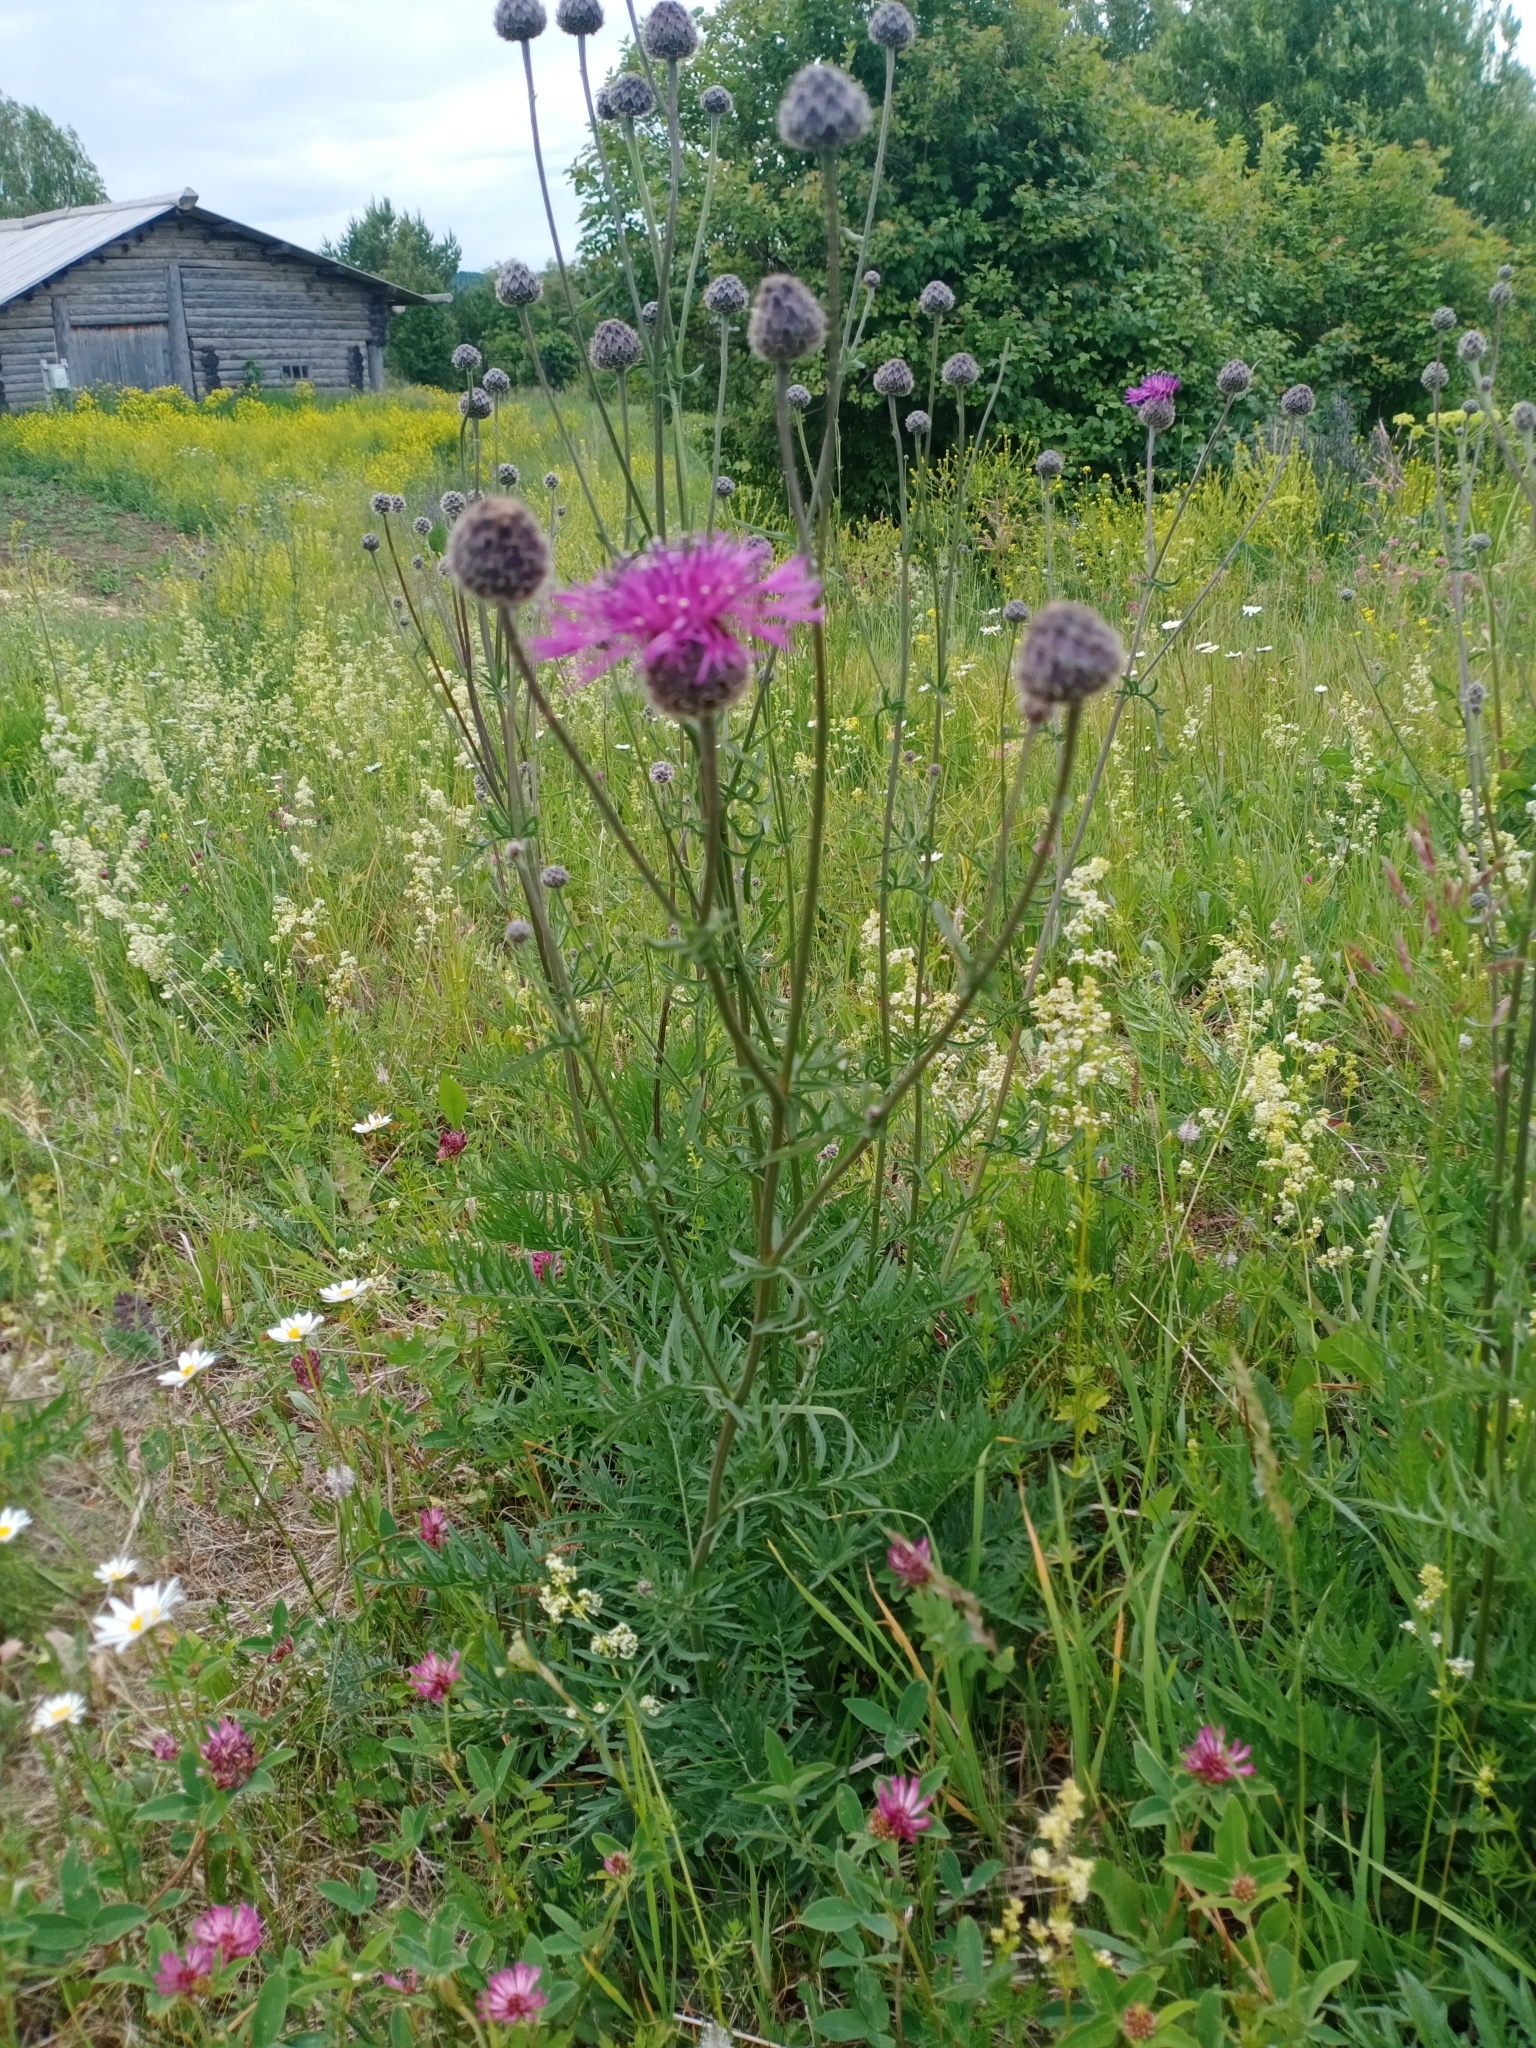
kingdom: Plantae
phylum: Tracheophyta
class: Magnoliopsida
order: Asterales
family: Asteraceae
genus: Centaurea
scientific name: Centaurea scabiosa
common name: Greater knapweed
